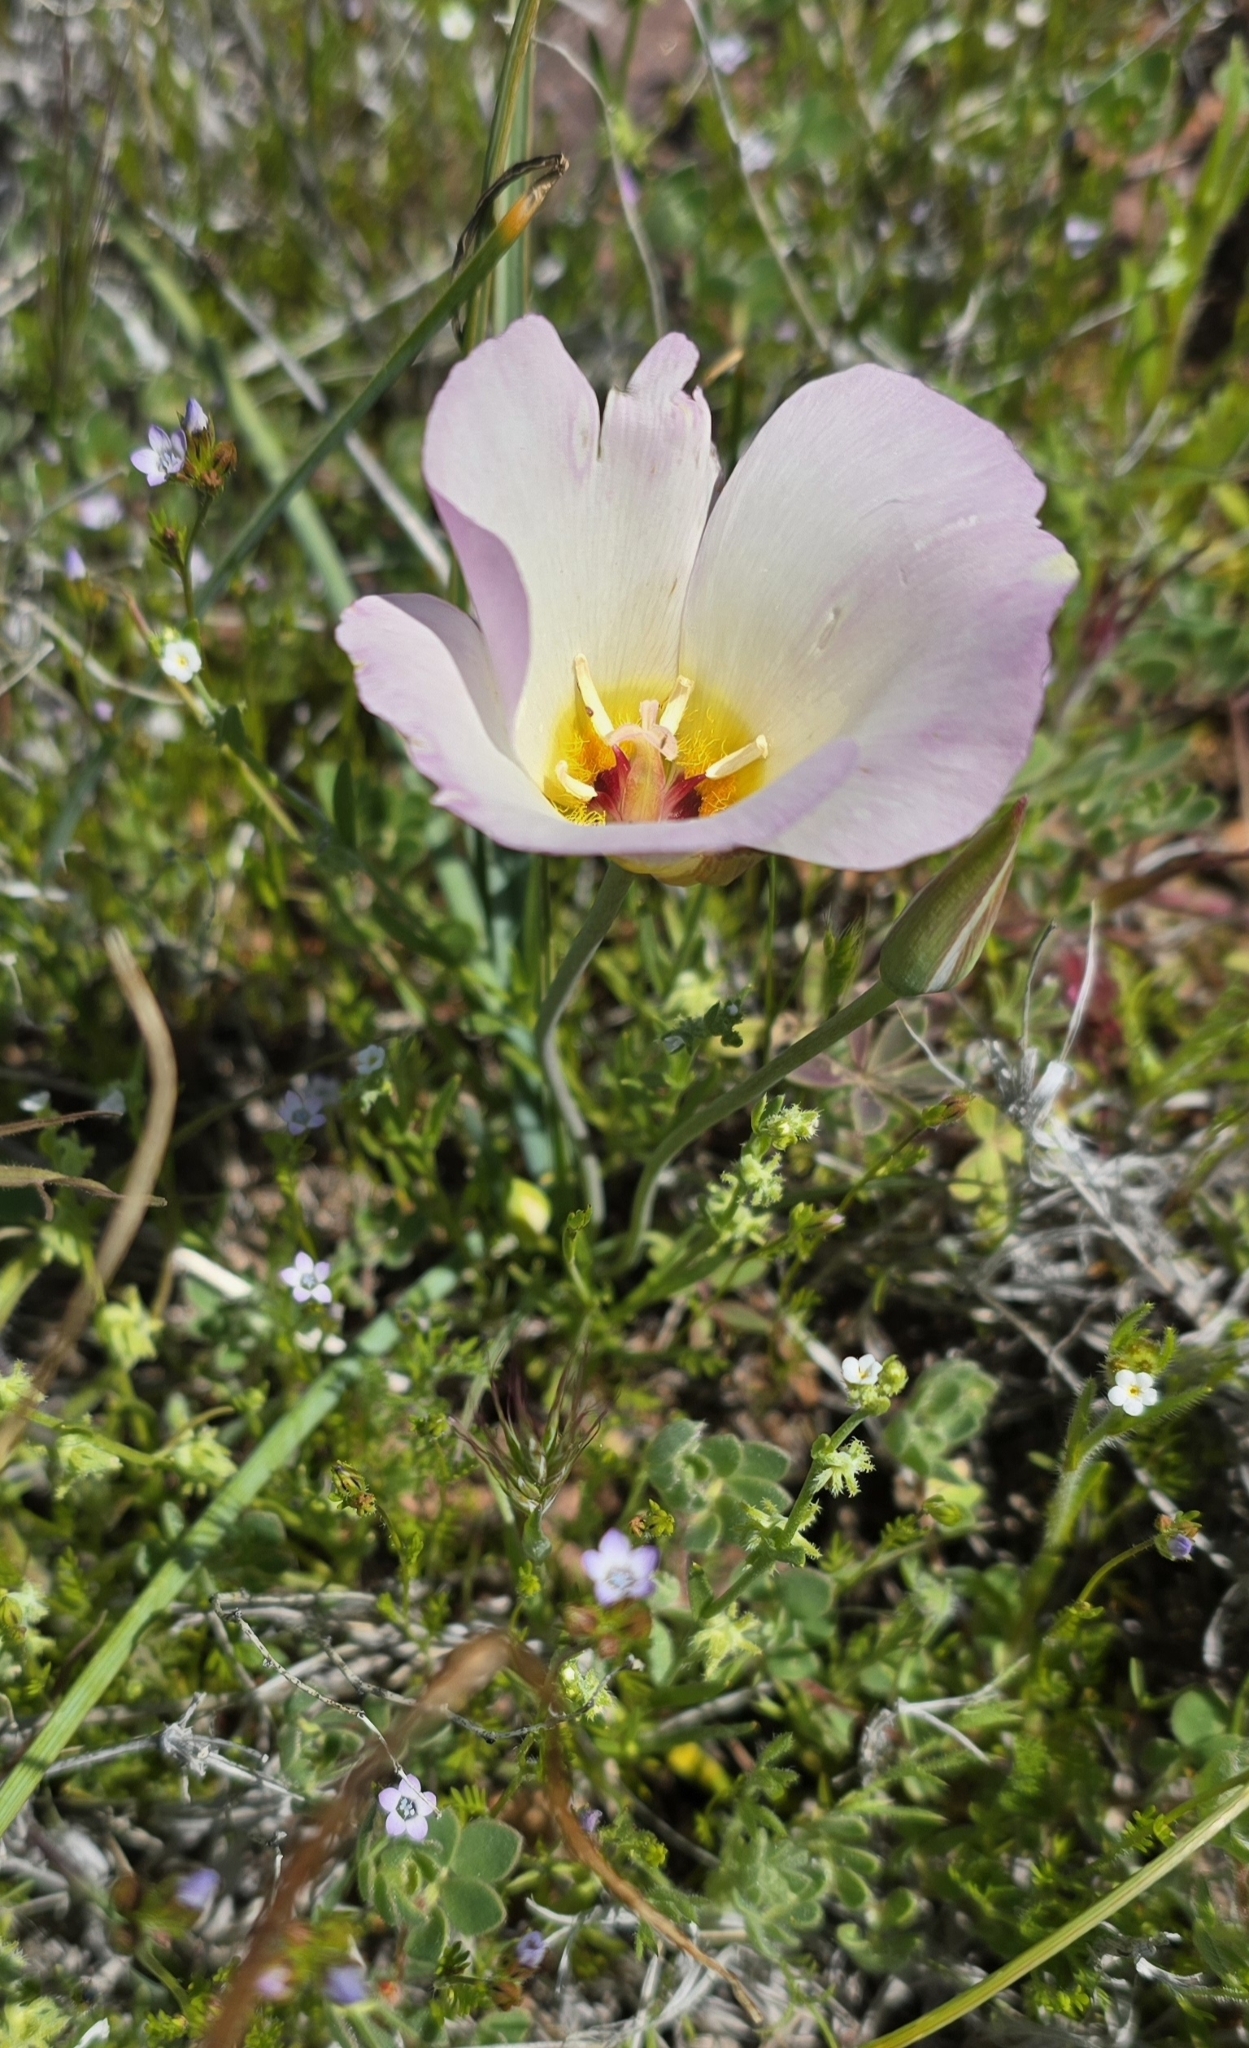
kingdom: Plantae
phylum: Tracheophyta
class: Liliopsida
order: Liliales
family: Liliaceae
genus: Calochortus
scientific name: Calochortus flexuosus
